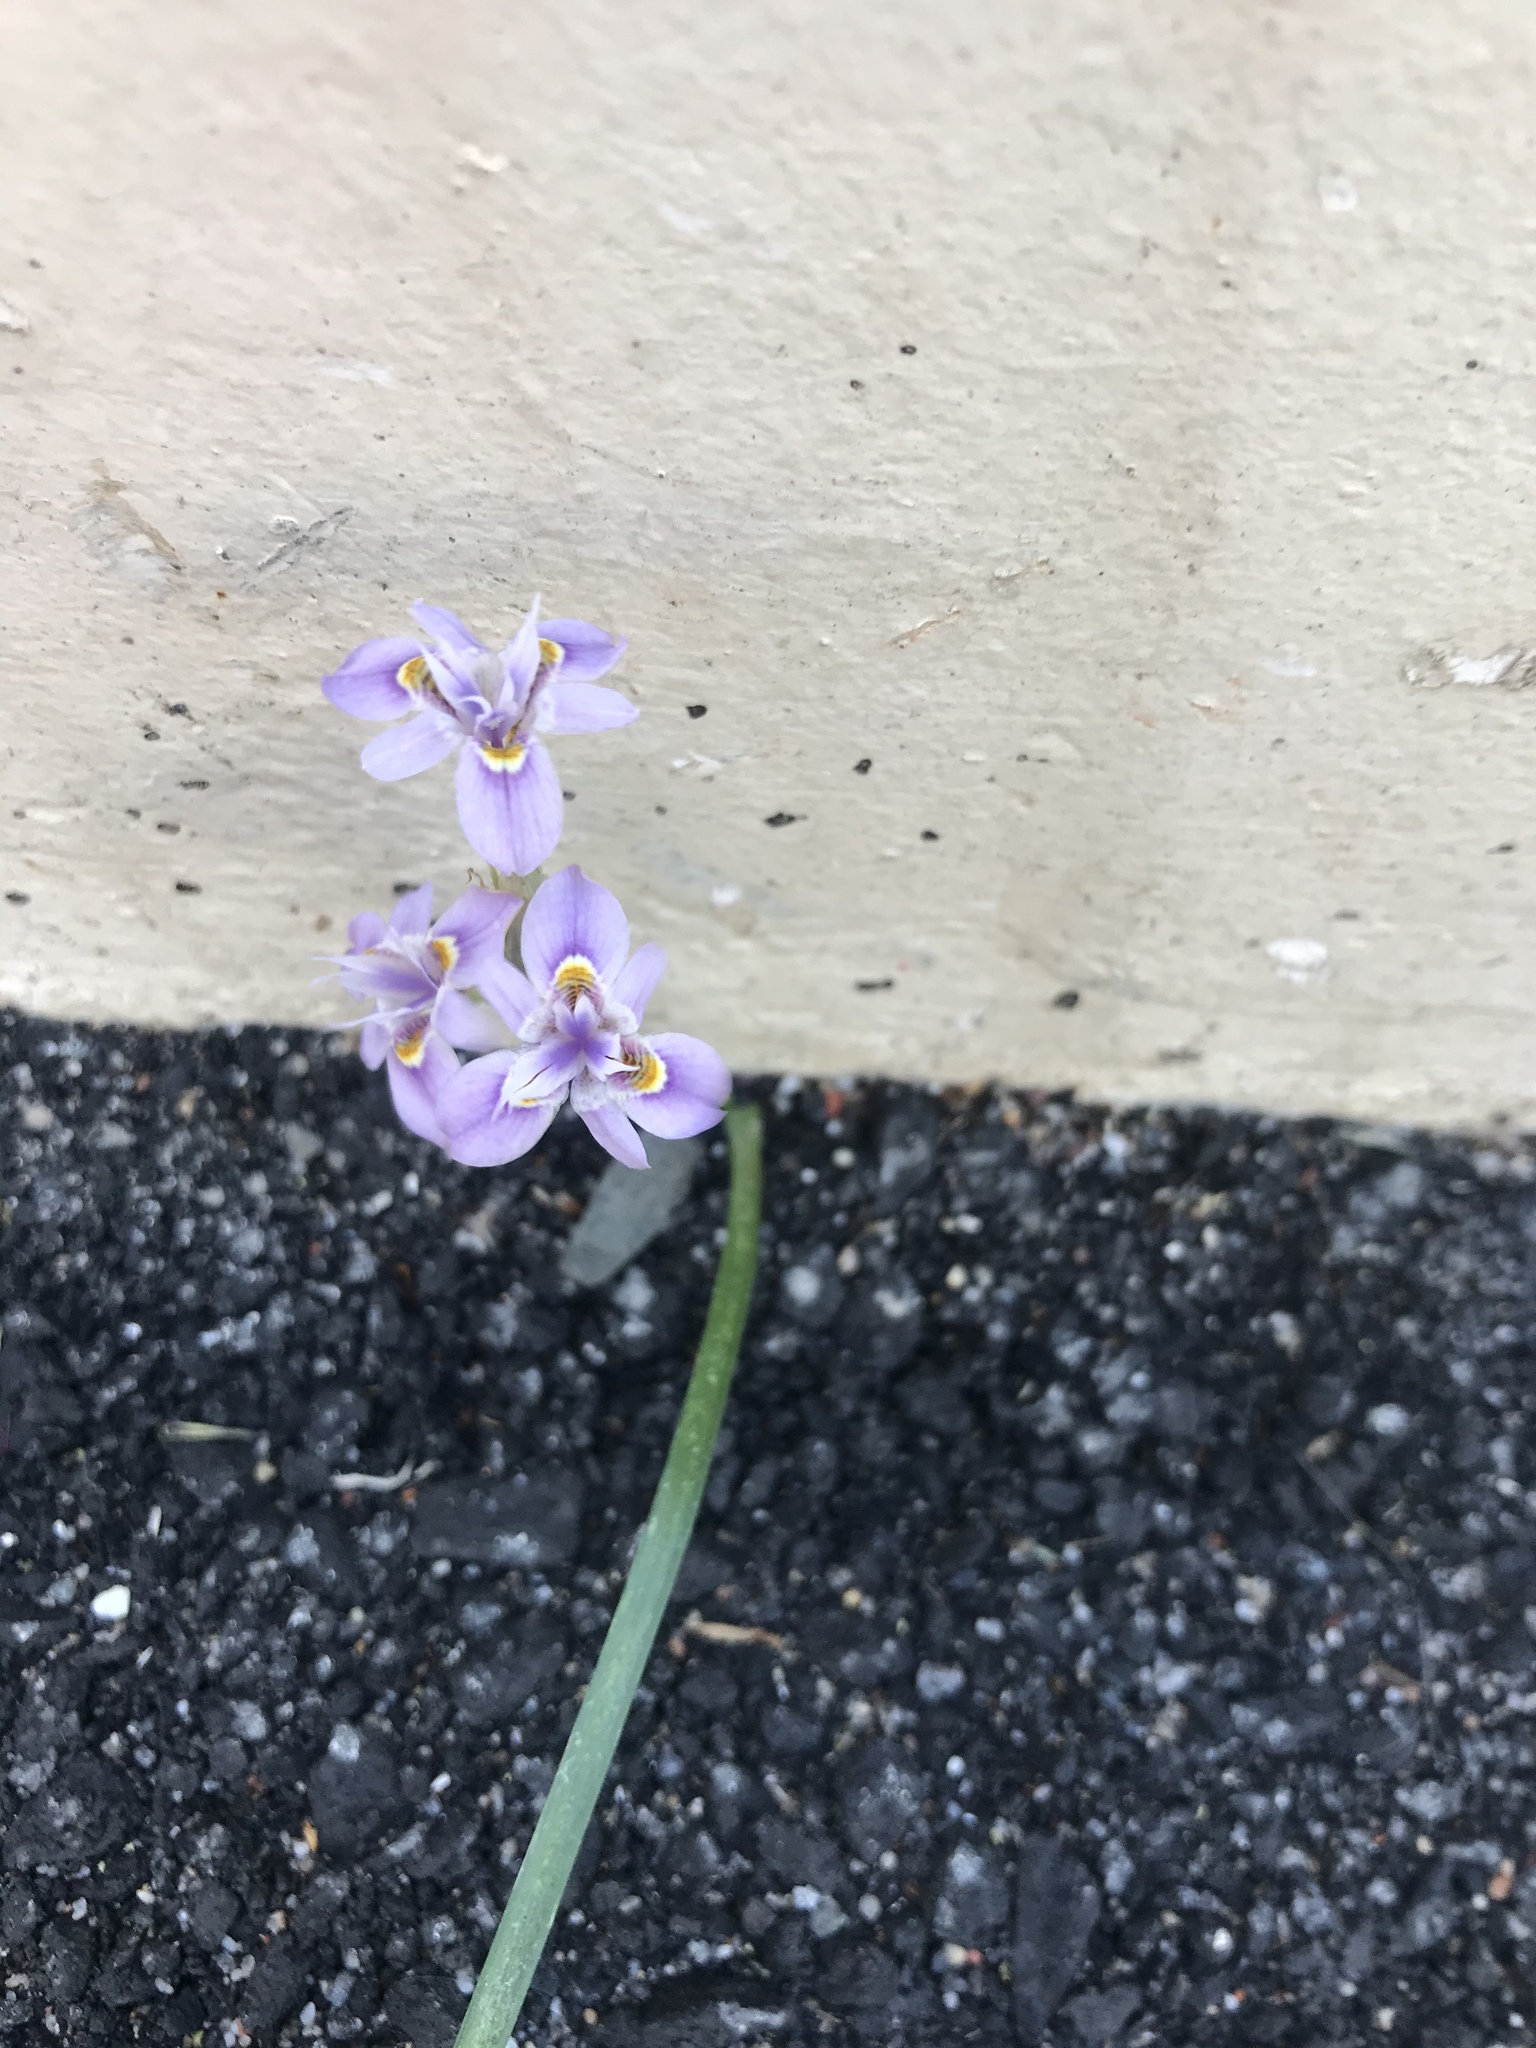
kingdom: Plantae
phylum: Tracheophyta
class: Liliopsida
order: Asparagales
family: Iridaceae
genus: Moraea
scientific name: Moraea setifolia
